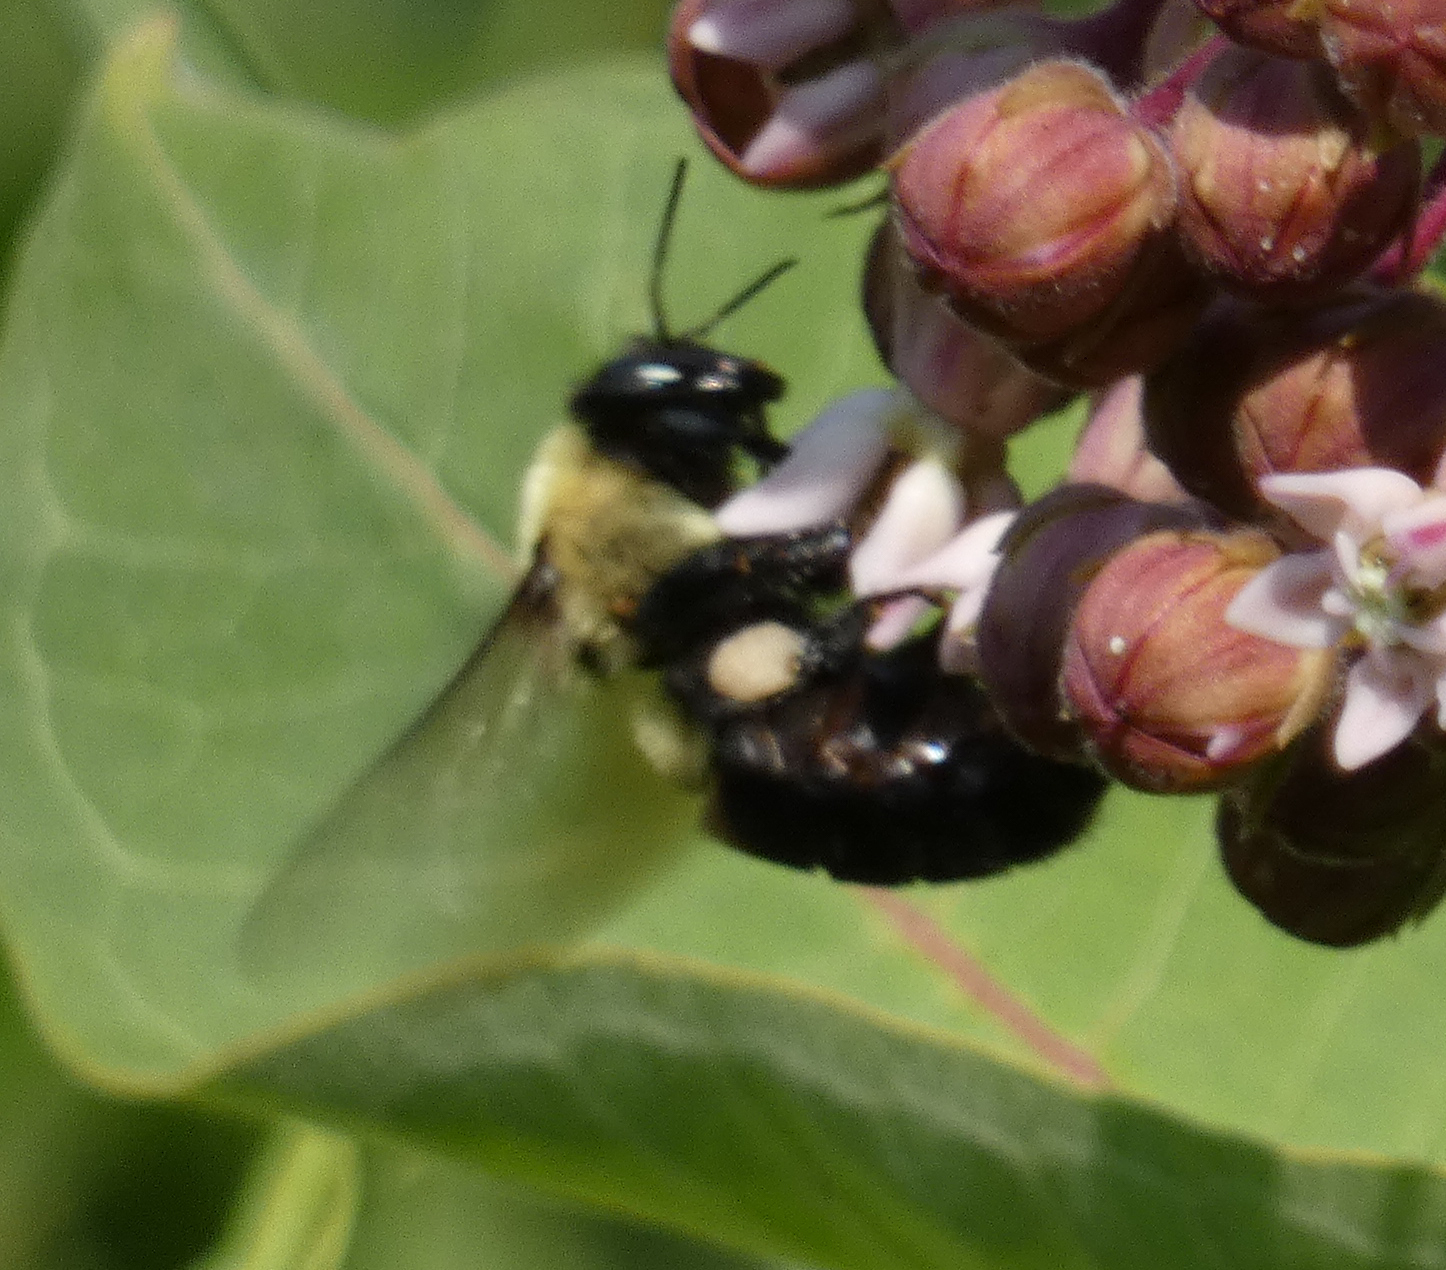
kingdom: Animalia
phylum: Arthropoda
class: Insecta
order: Hymenoptera
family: Apidae
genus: Bombus
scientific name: Bombus griseocollis
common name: Brown-belted bumble bee
